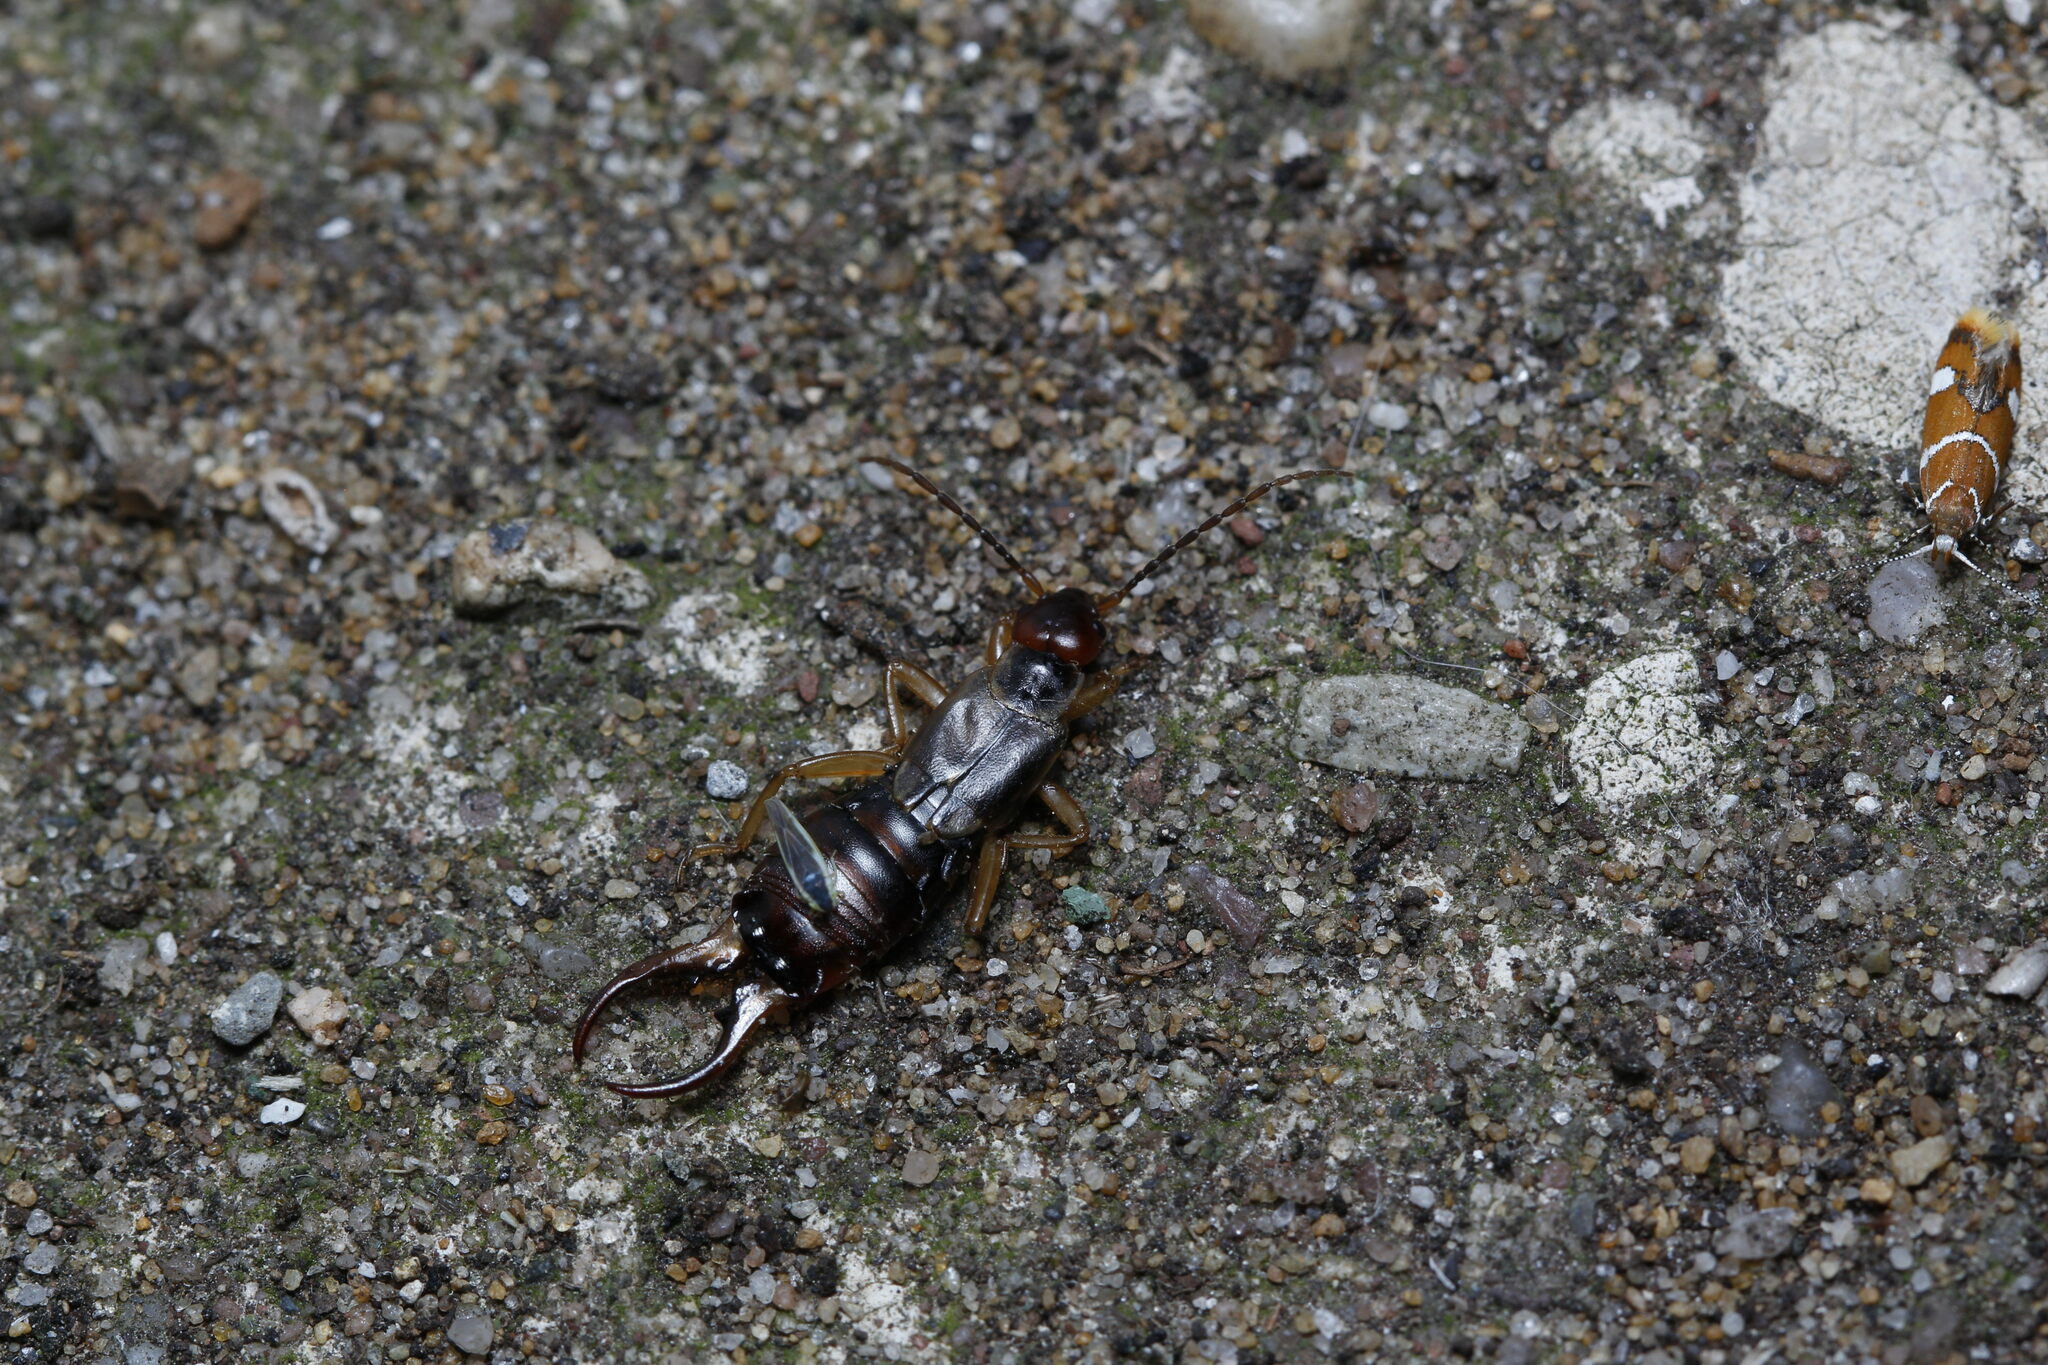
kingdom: Animalia
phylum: Arthropoda
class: Insecta
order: Dermaptera
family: Forficulidae
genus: Forficula
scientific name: Forficula
